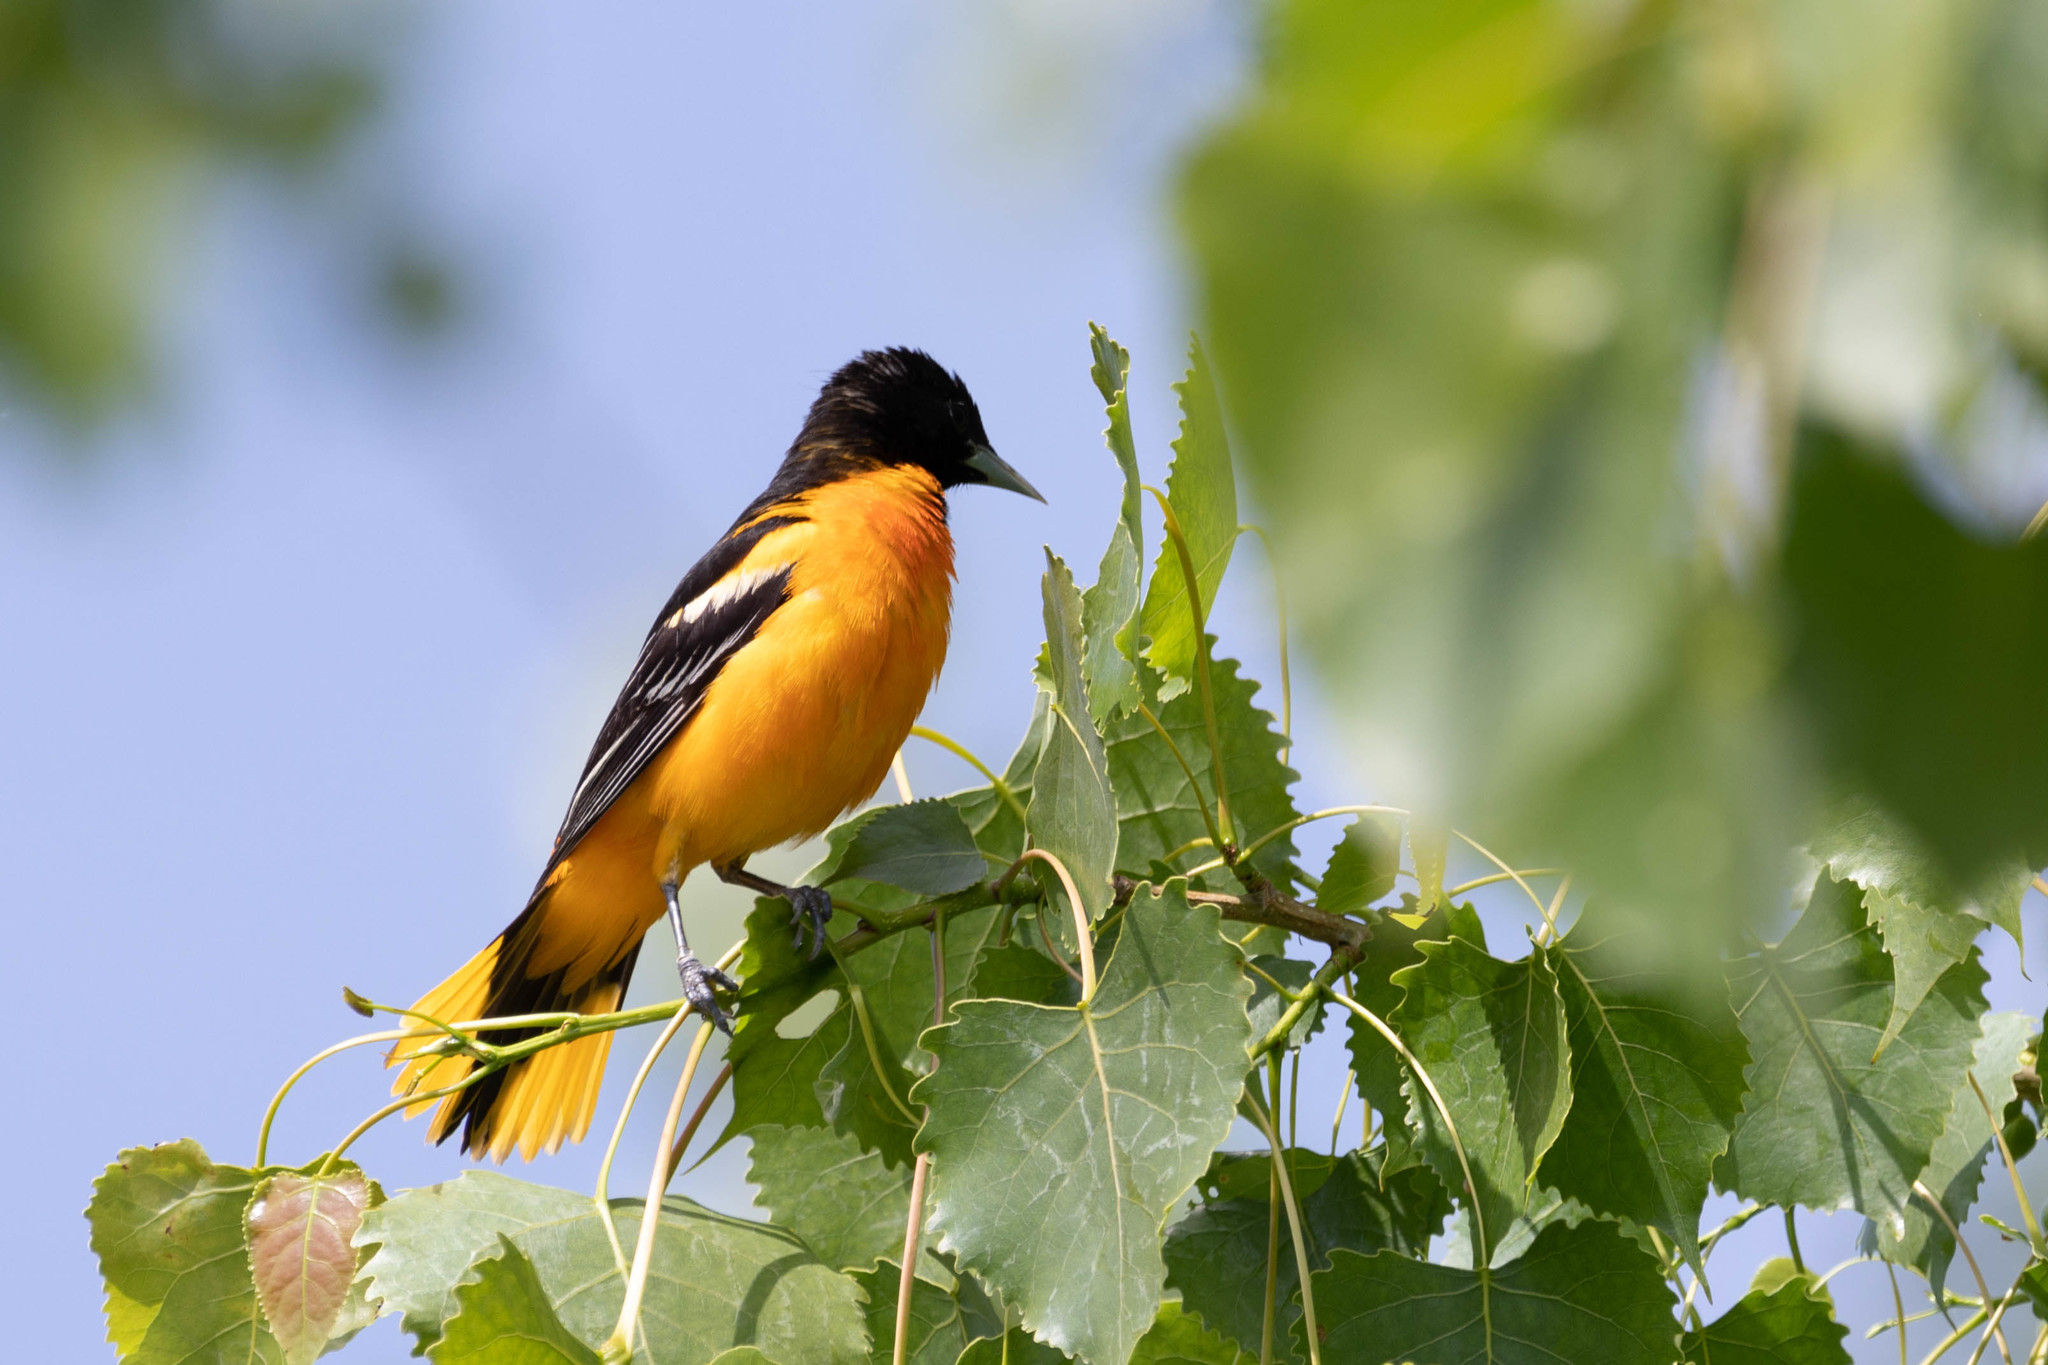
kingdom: Animalia
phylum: Chordata
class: Aves
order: Passeriformes
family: Icteridae
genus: Icterus
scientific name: Icterus galbula
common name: Baltimore oriole
